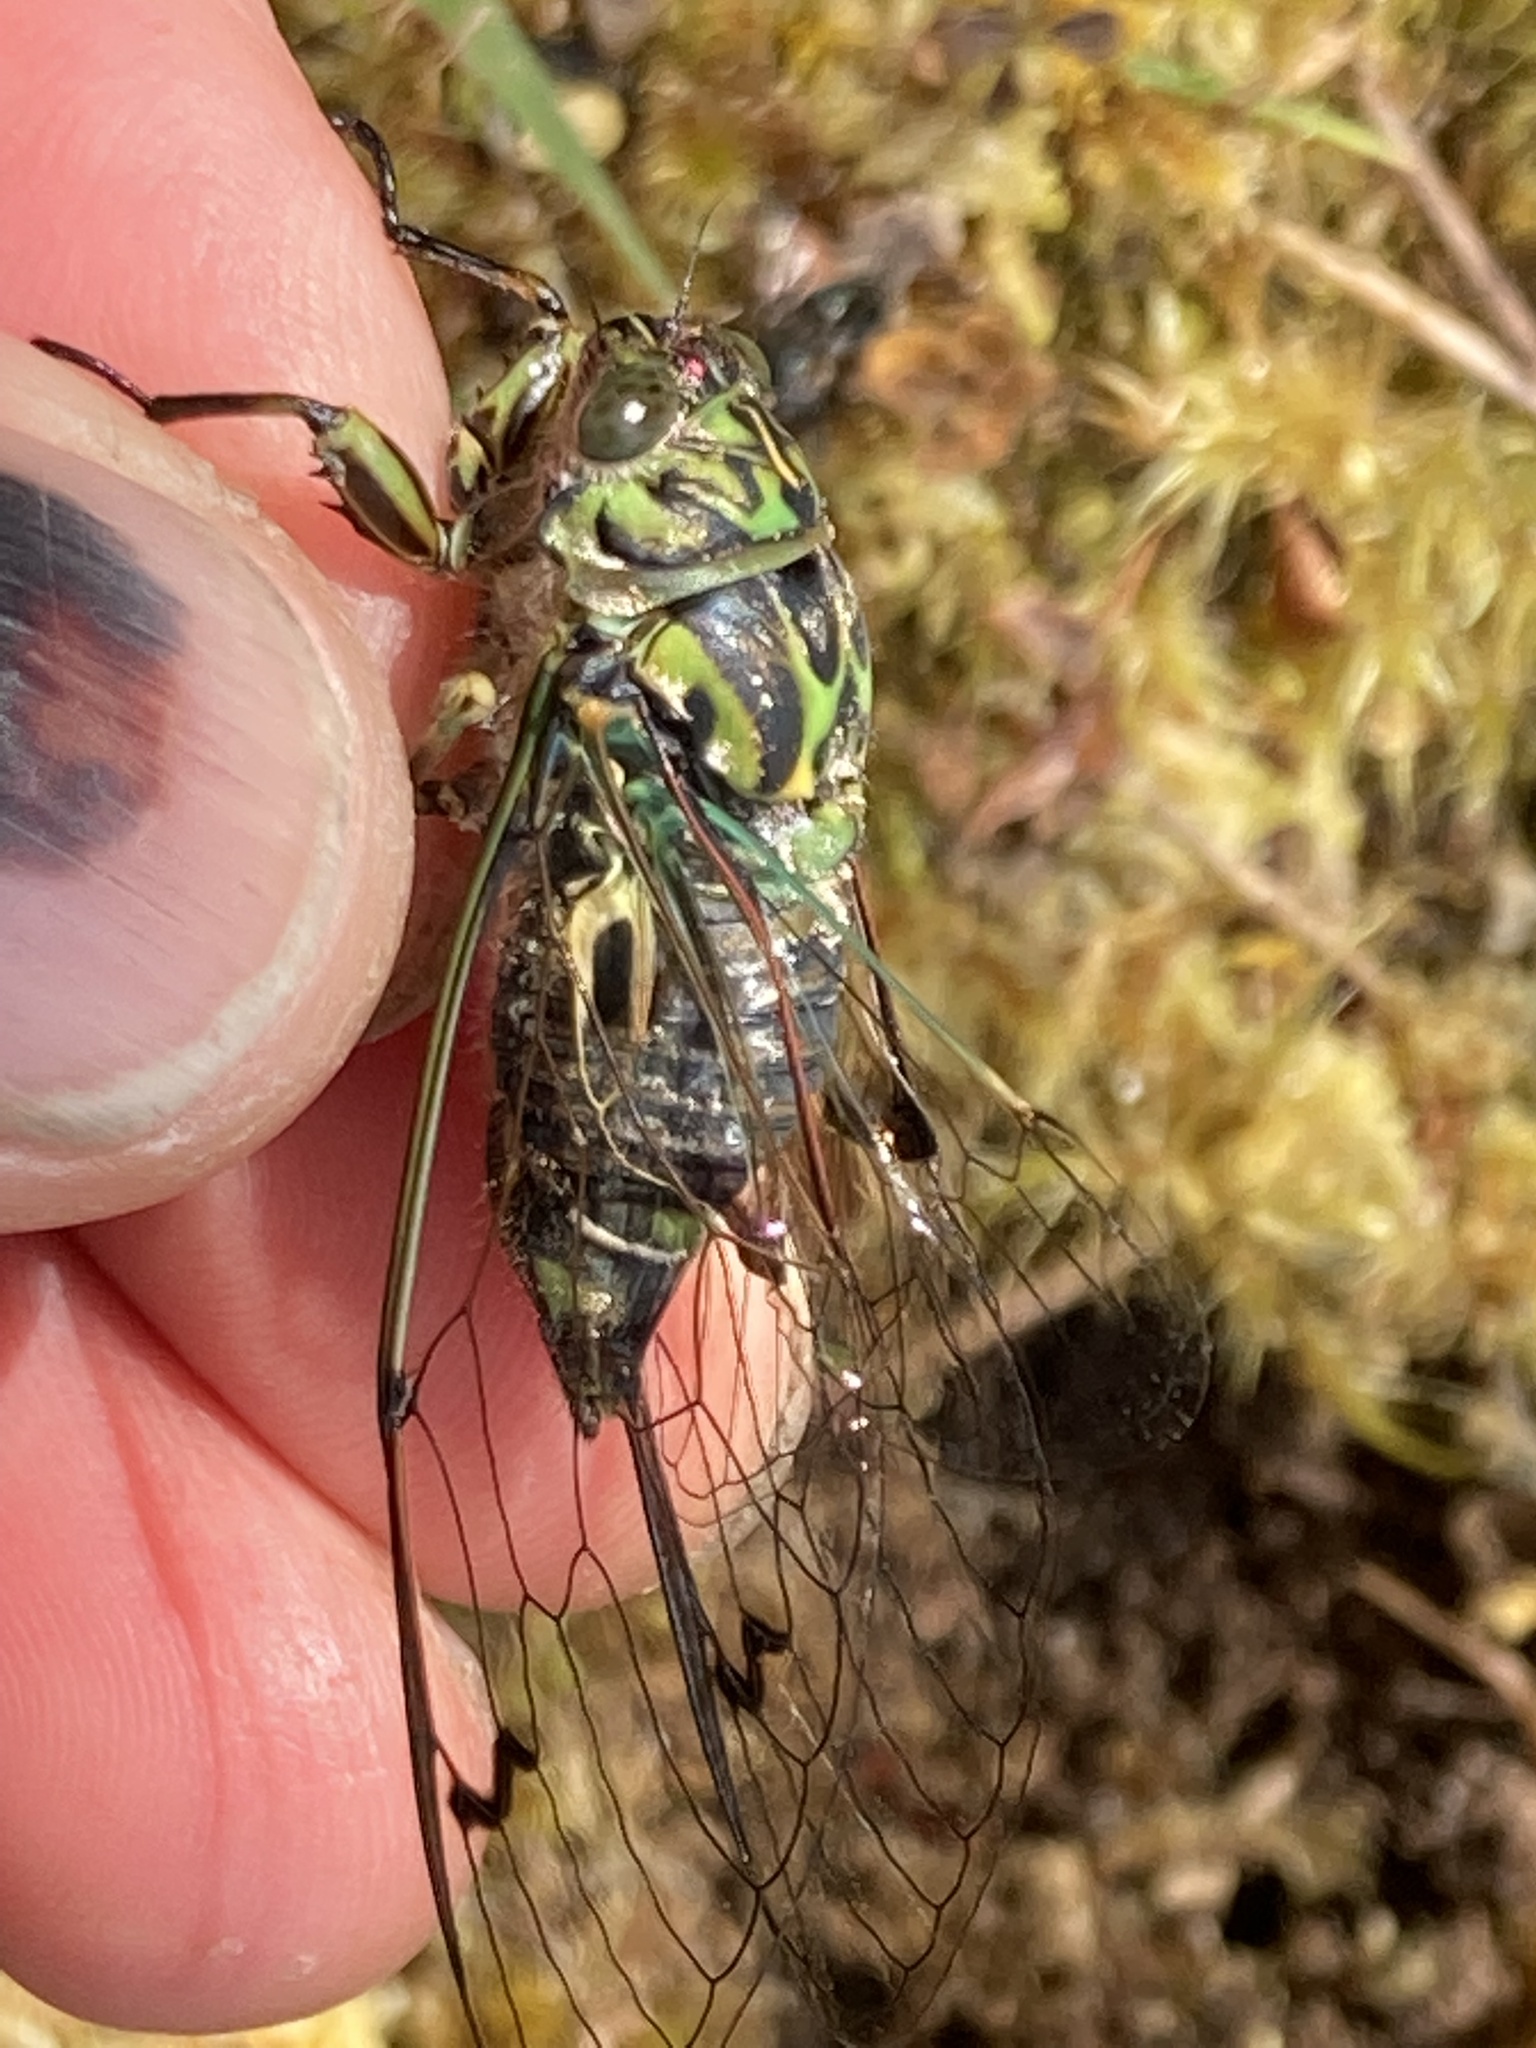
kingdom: Animalia
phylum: Arthropoda
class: Insecta
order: Hemiptera
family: Cicadidae
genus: Amphipsalta
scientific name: Amphipsalta zelandica
